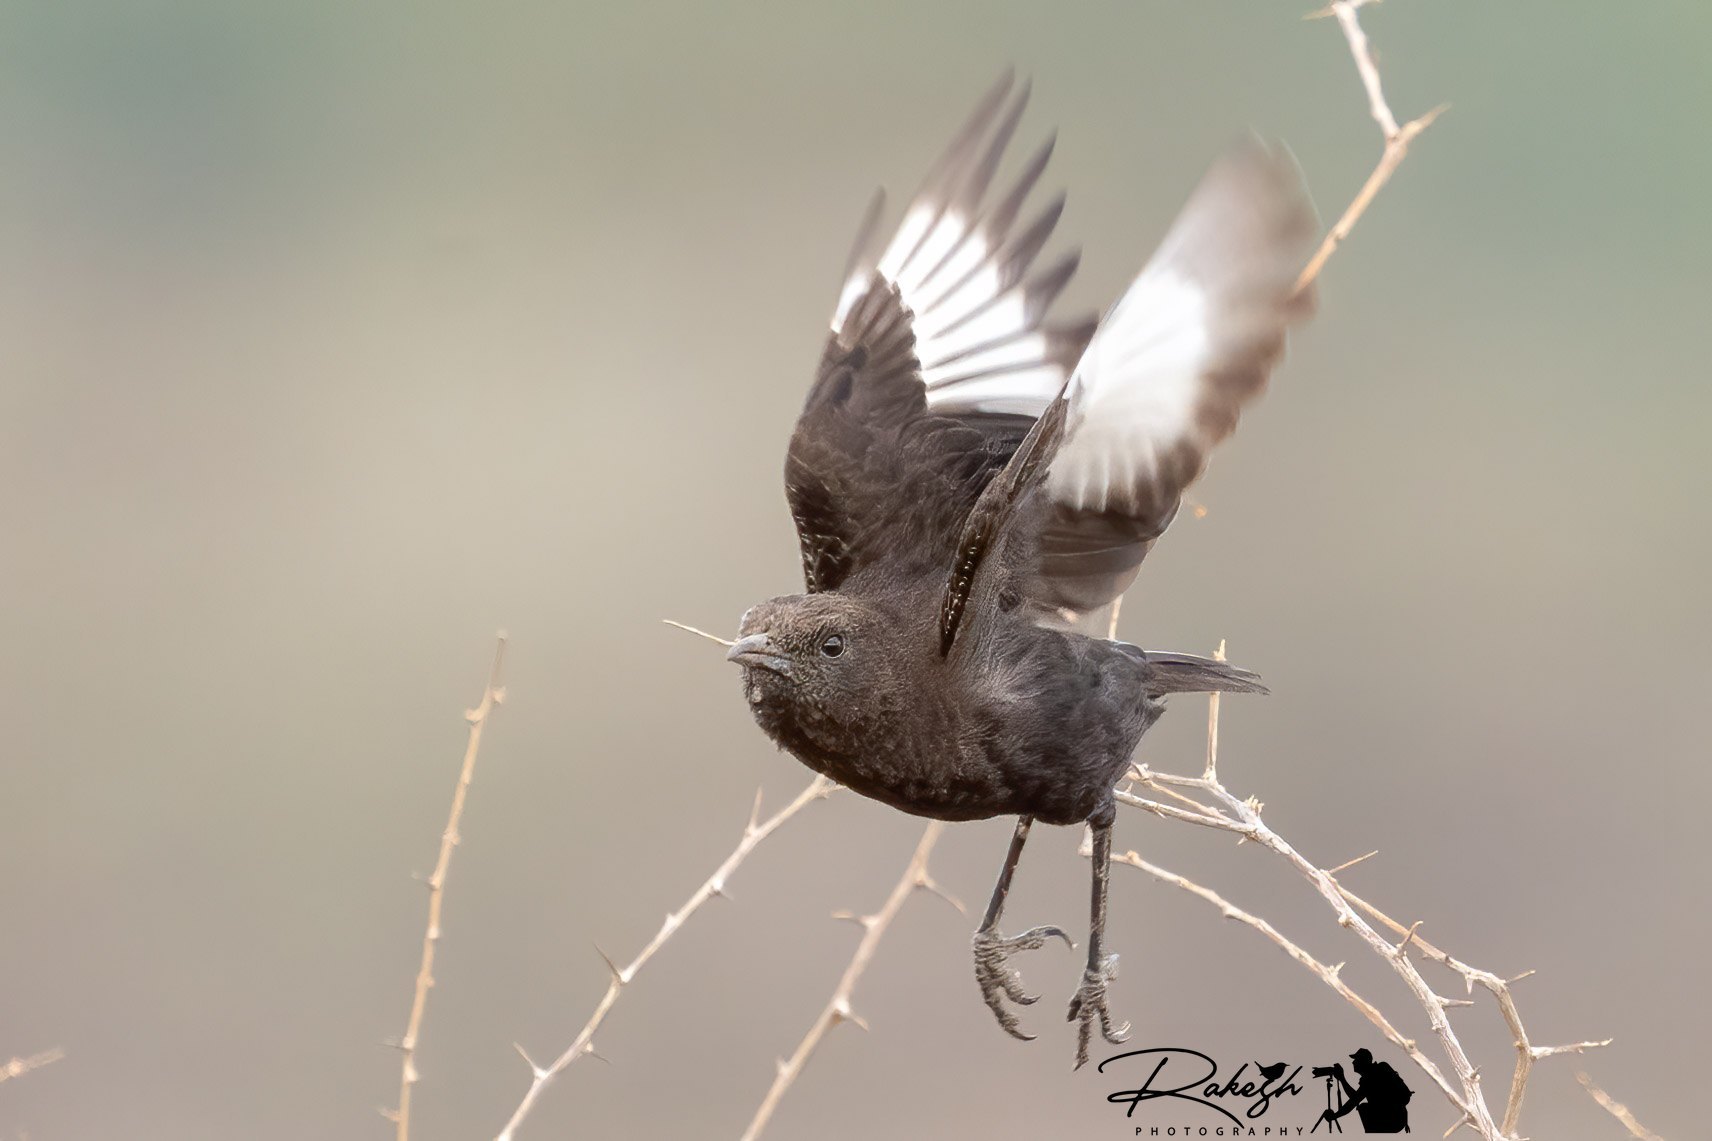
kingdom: Animalia
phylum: Chordata
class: Aves
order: Passeriformes
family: Muscicapidae
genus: Myrmecocichla
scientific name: Myrmecocichla aethiops
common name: Anteater chat
